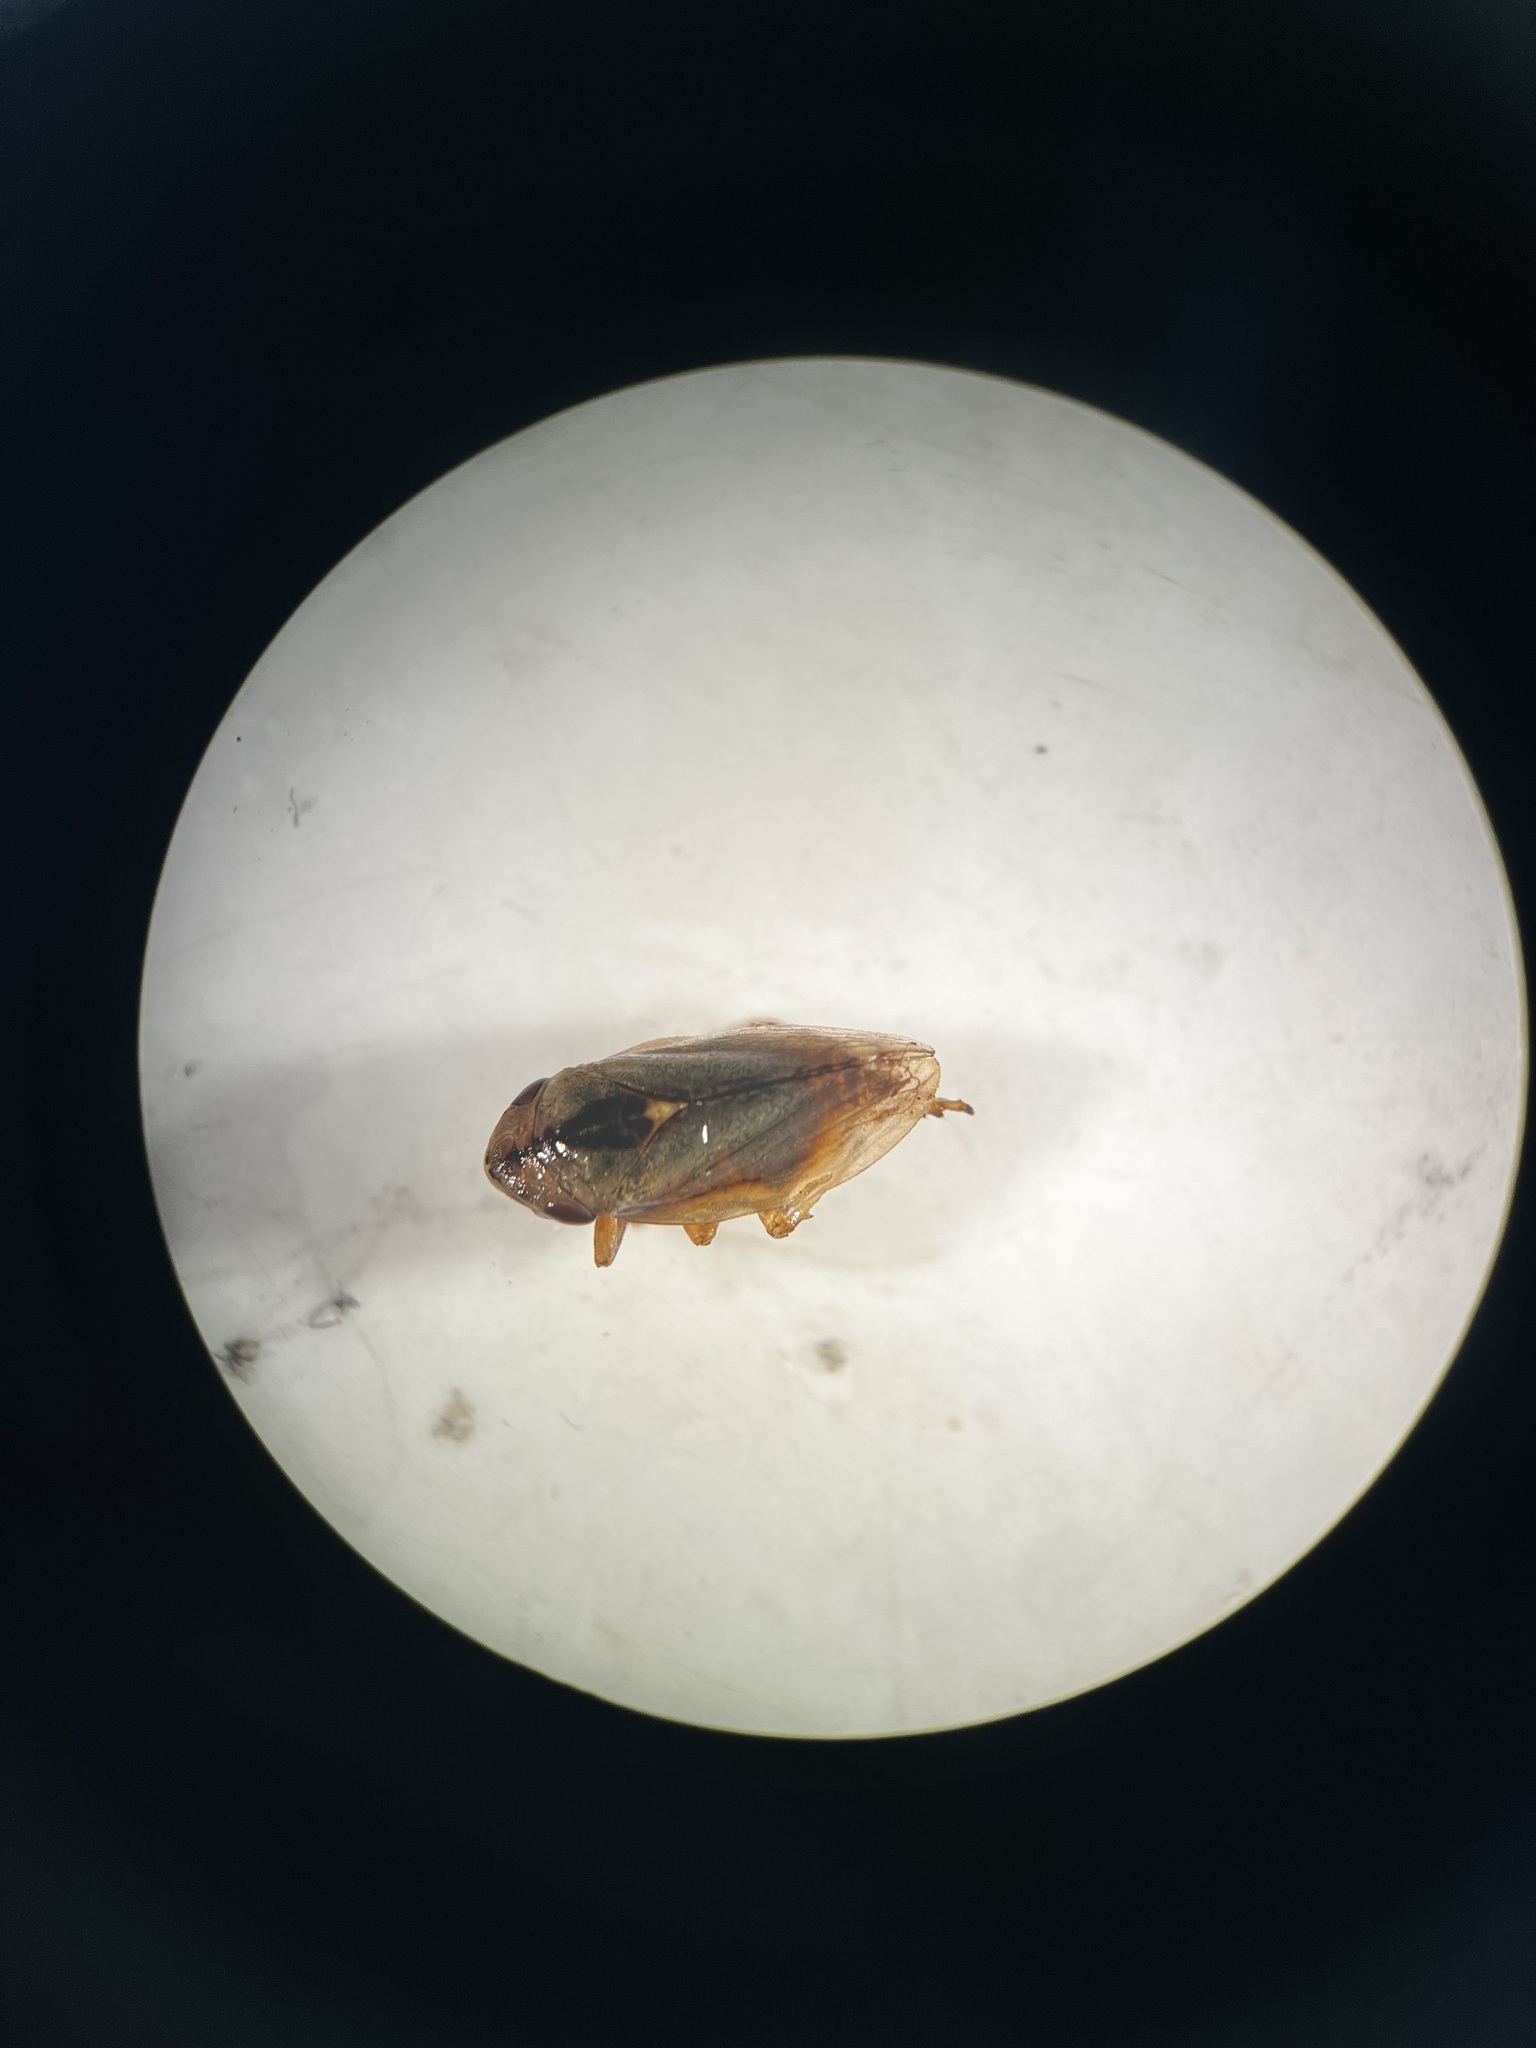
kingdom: Animalia
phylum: Arthropoda
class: Insecta
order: Hemiptera
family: Aphrophoridae
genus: Philaenus
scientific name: Philaenus spumarius
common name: Meadow spittlebug
